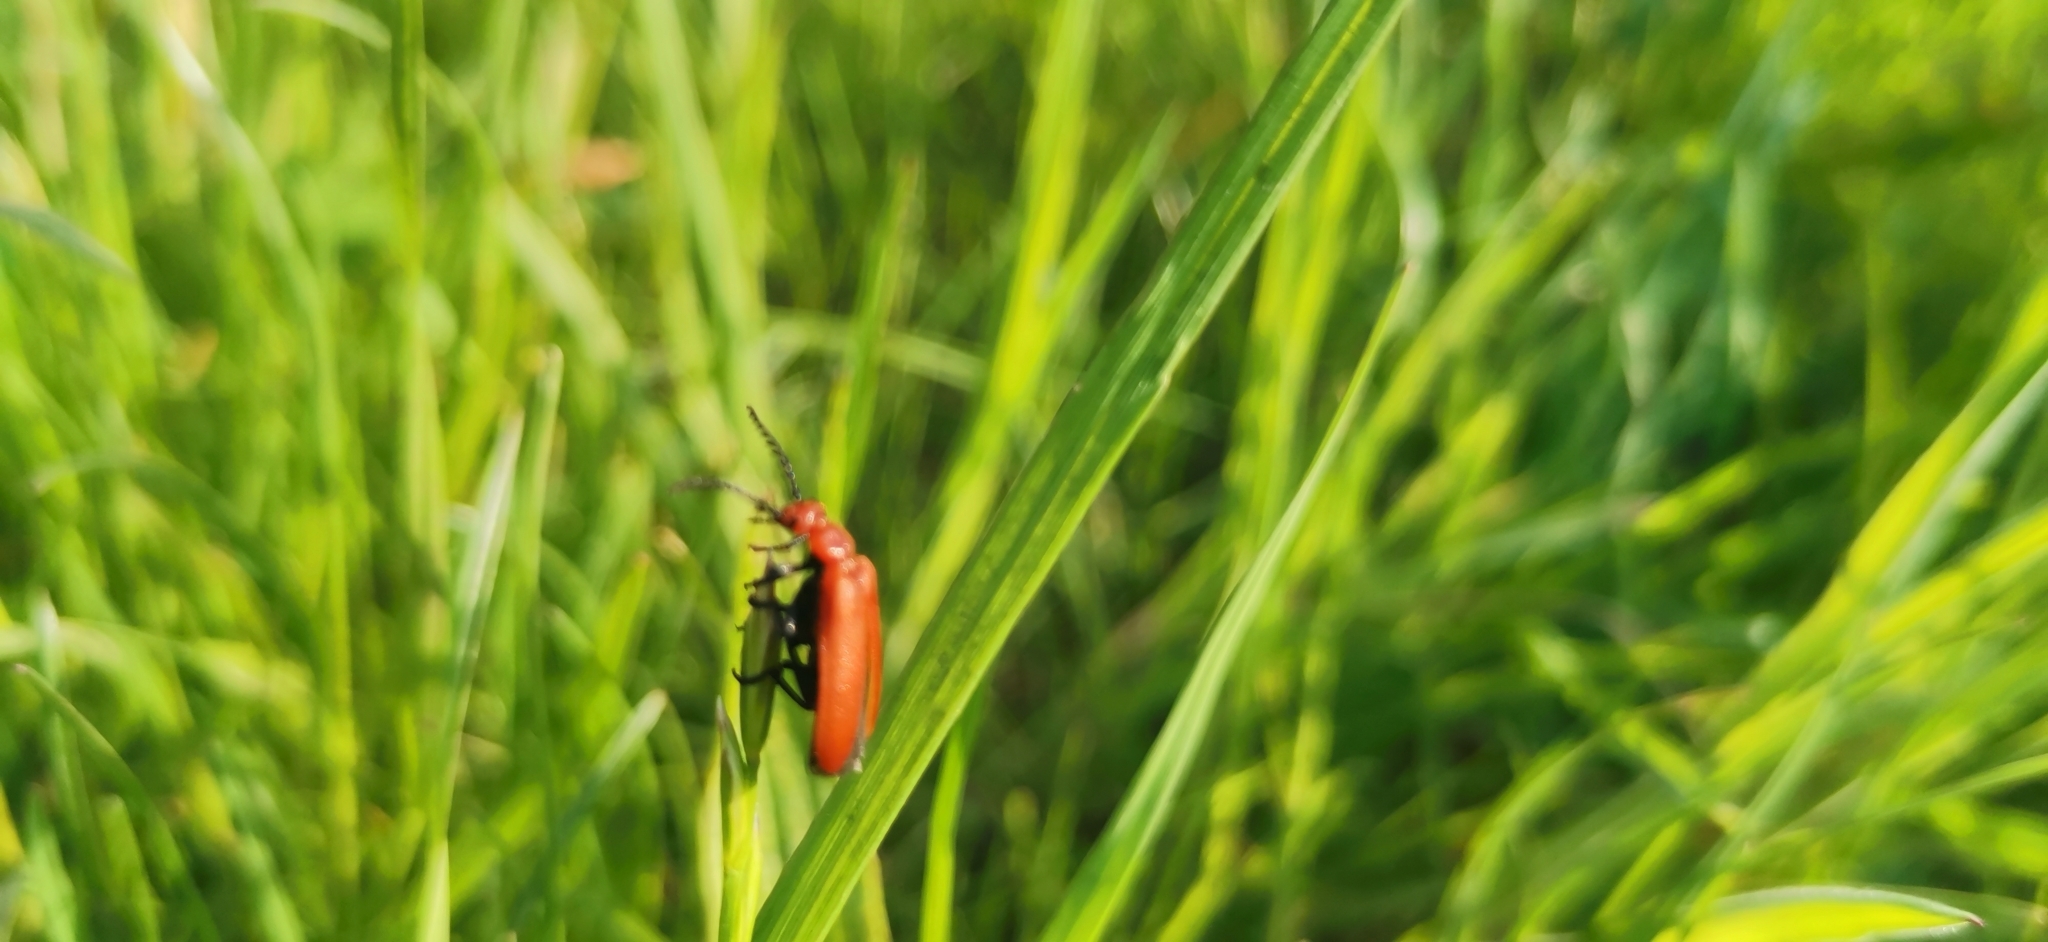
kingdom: Animalia
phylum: Arthropoda
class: Insecta
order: Coleoptera
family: Pyrochroidae
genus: Pyrochroa
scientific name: Pyrochroa serraticornis
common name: Red-headed cardinal beetle
